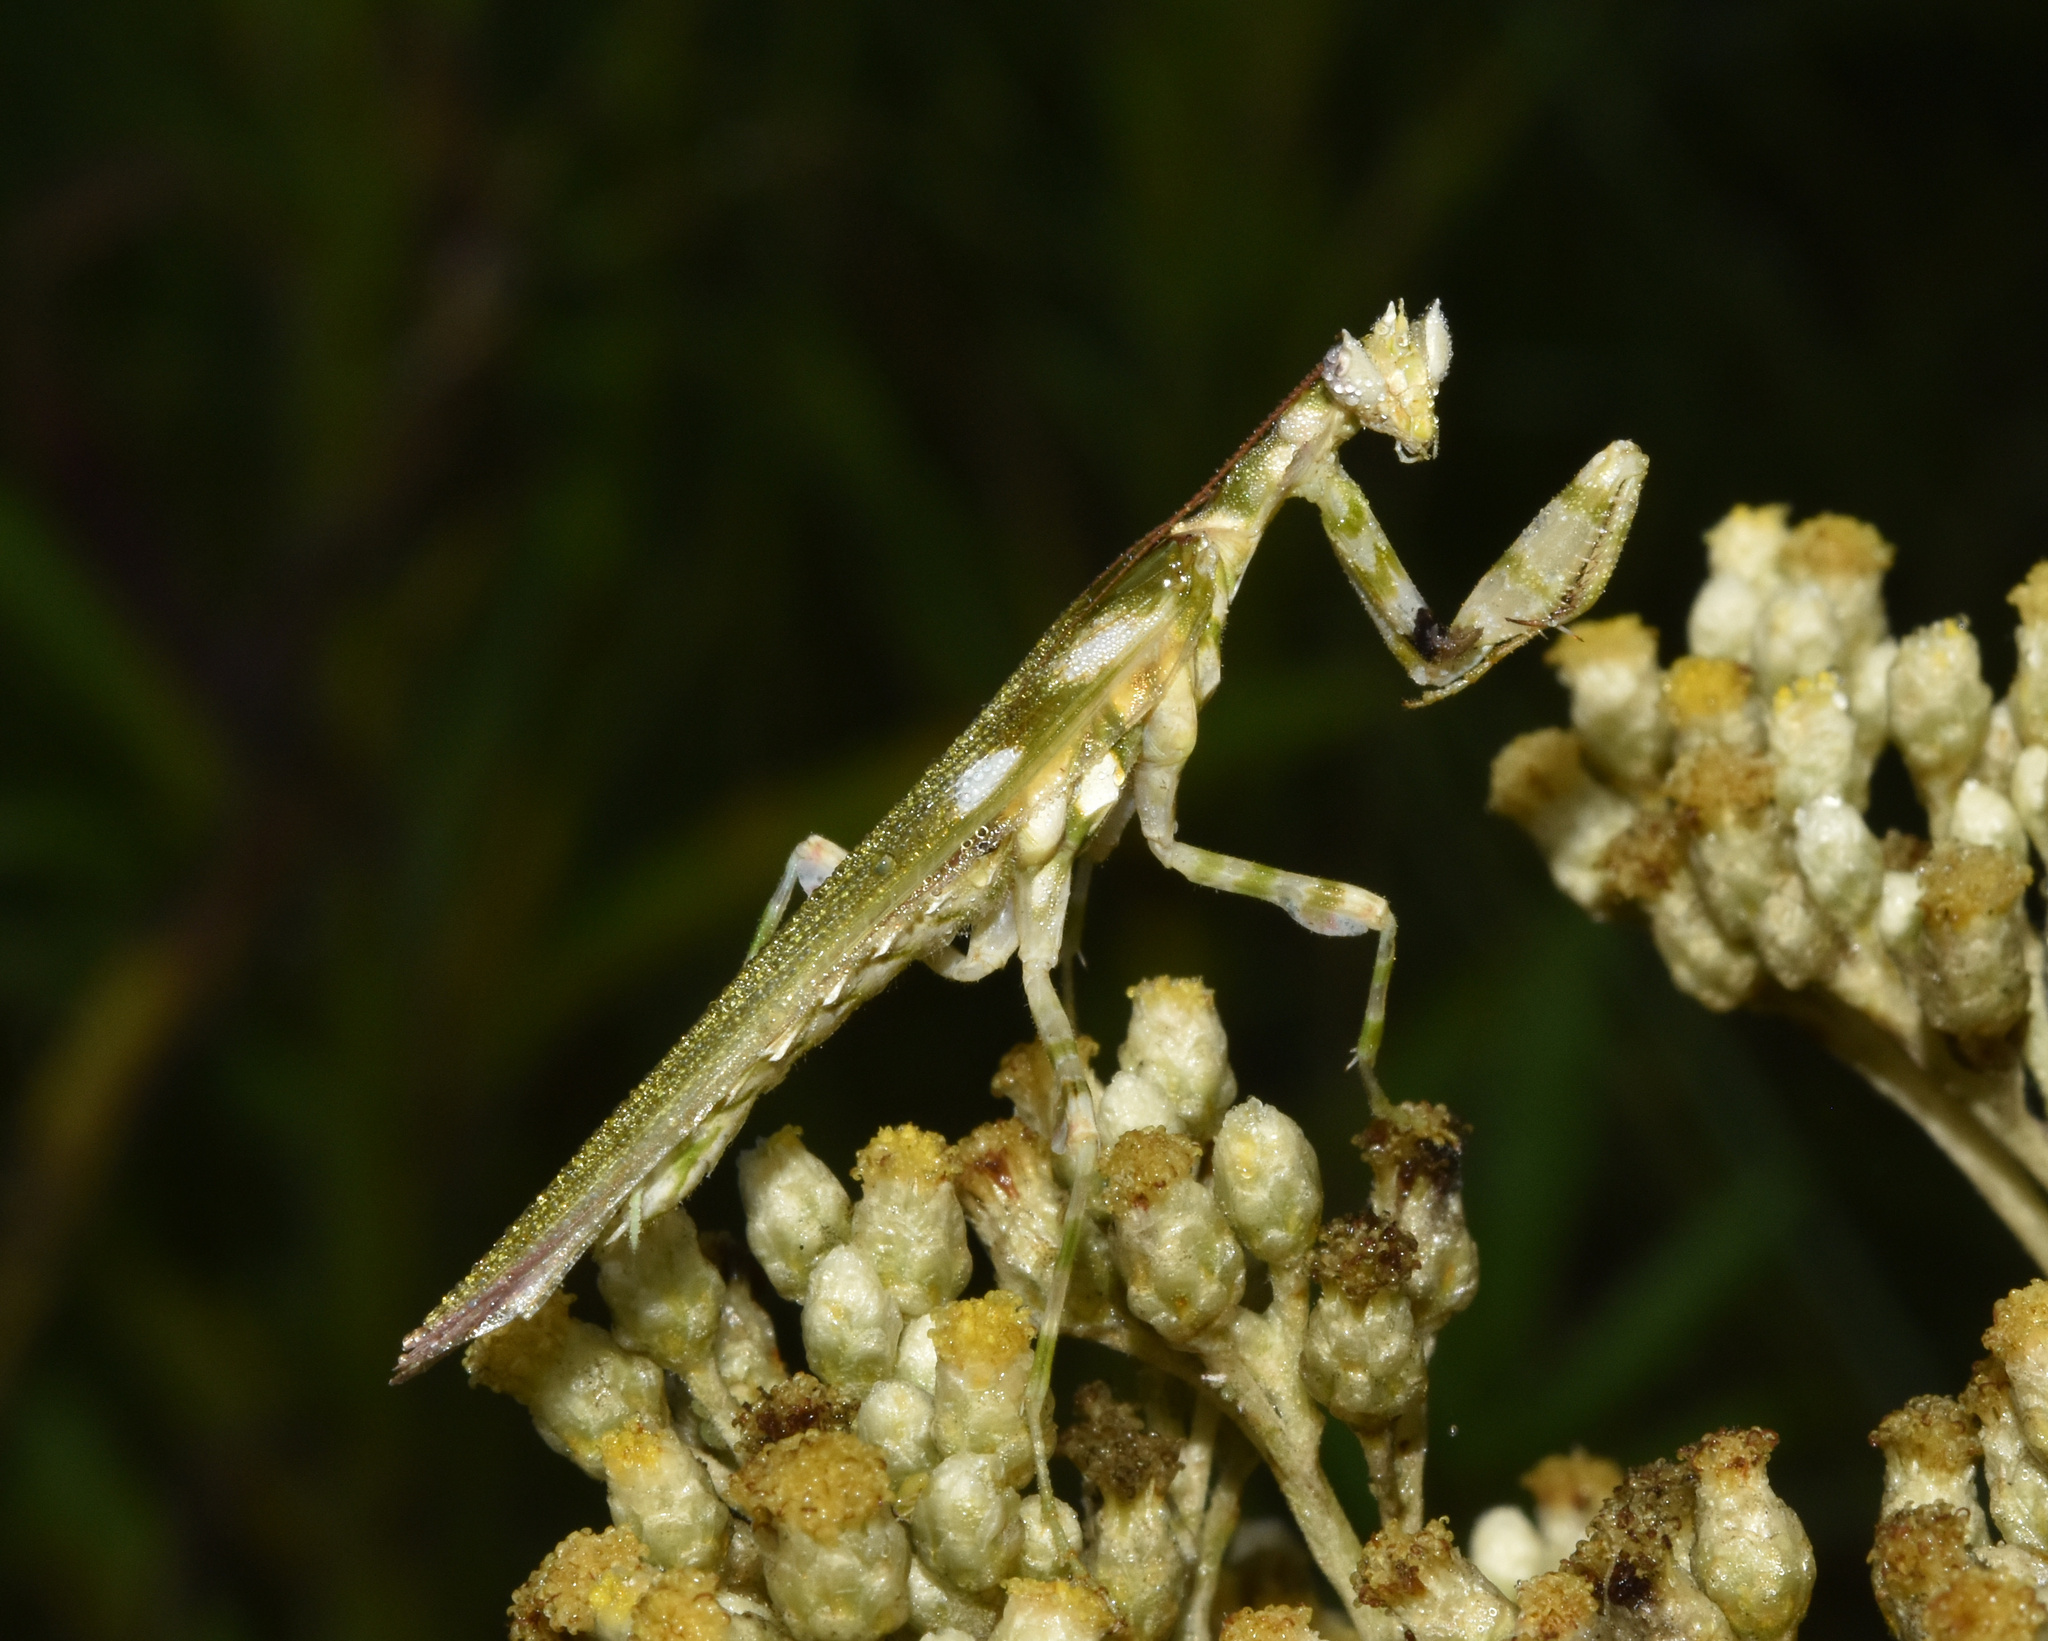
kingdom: Animalia
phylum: Arthropoda
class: Insecta
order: Mantodea
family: Galinthiadidae
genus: Harpagomantis
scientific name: Harpagomantis tricolor
